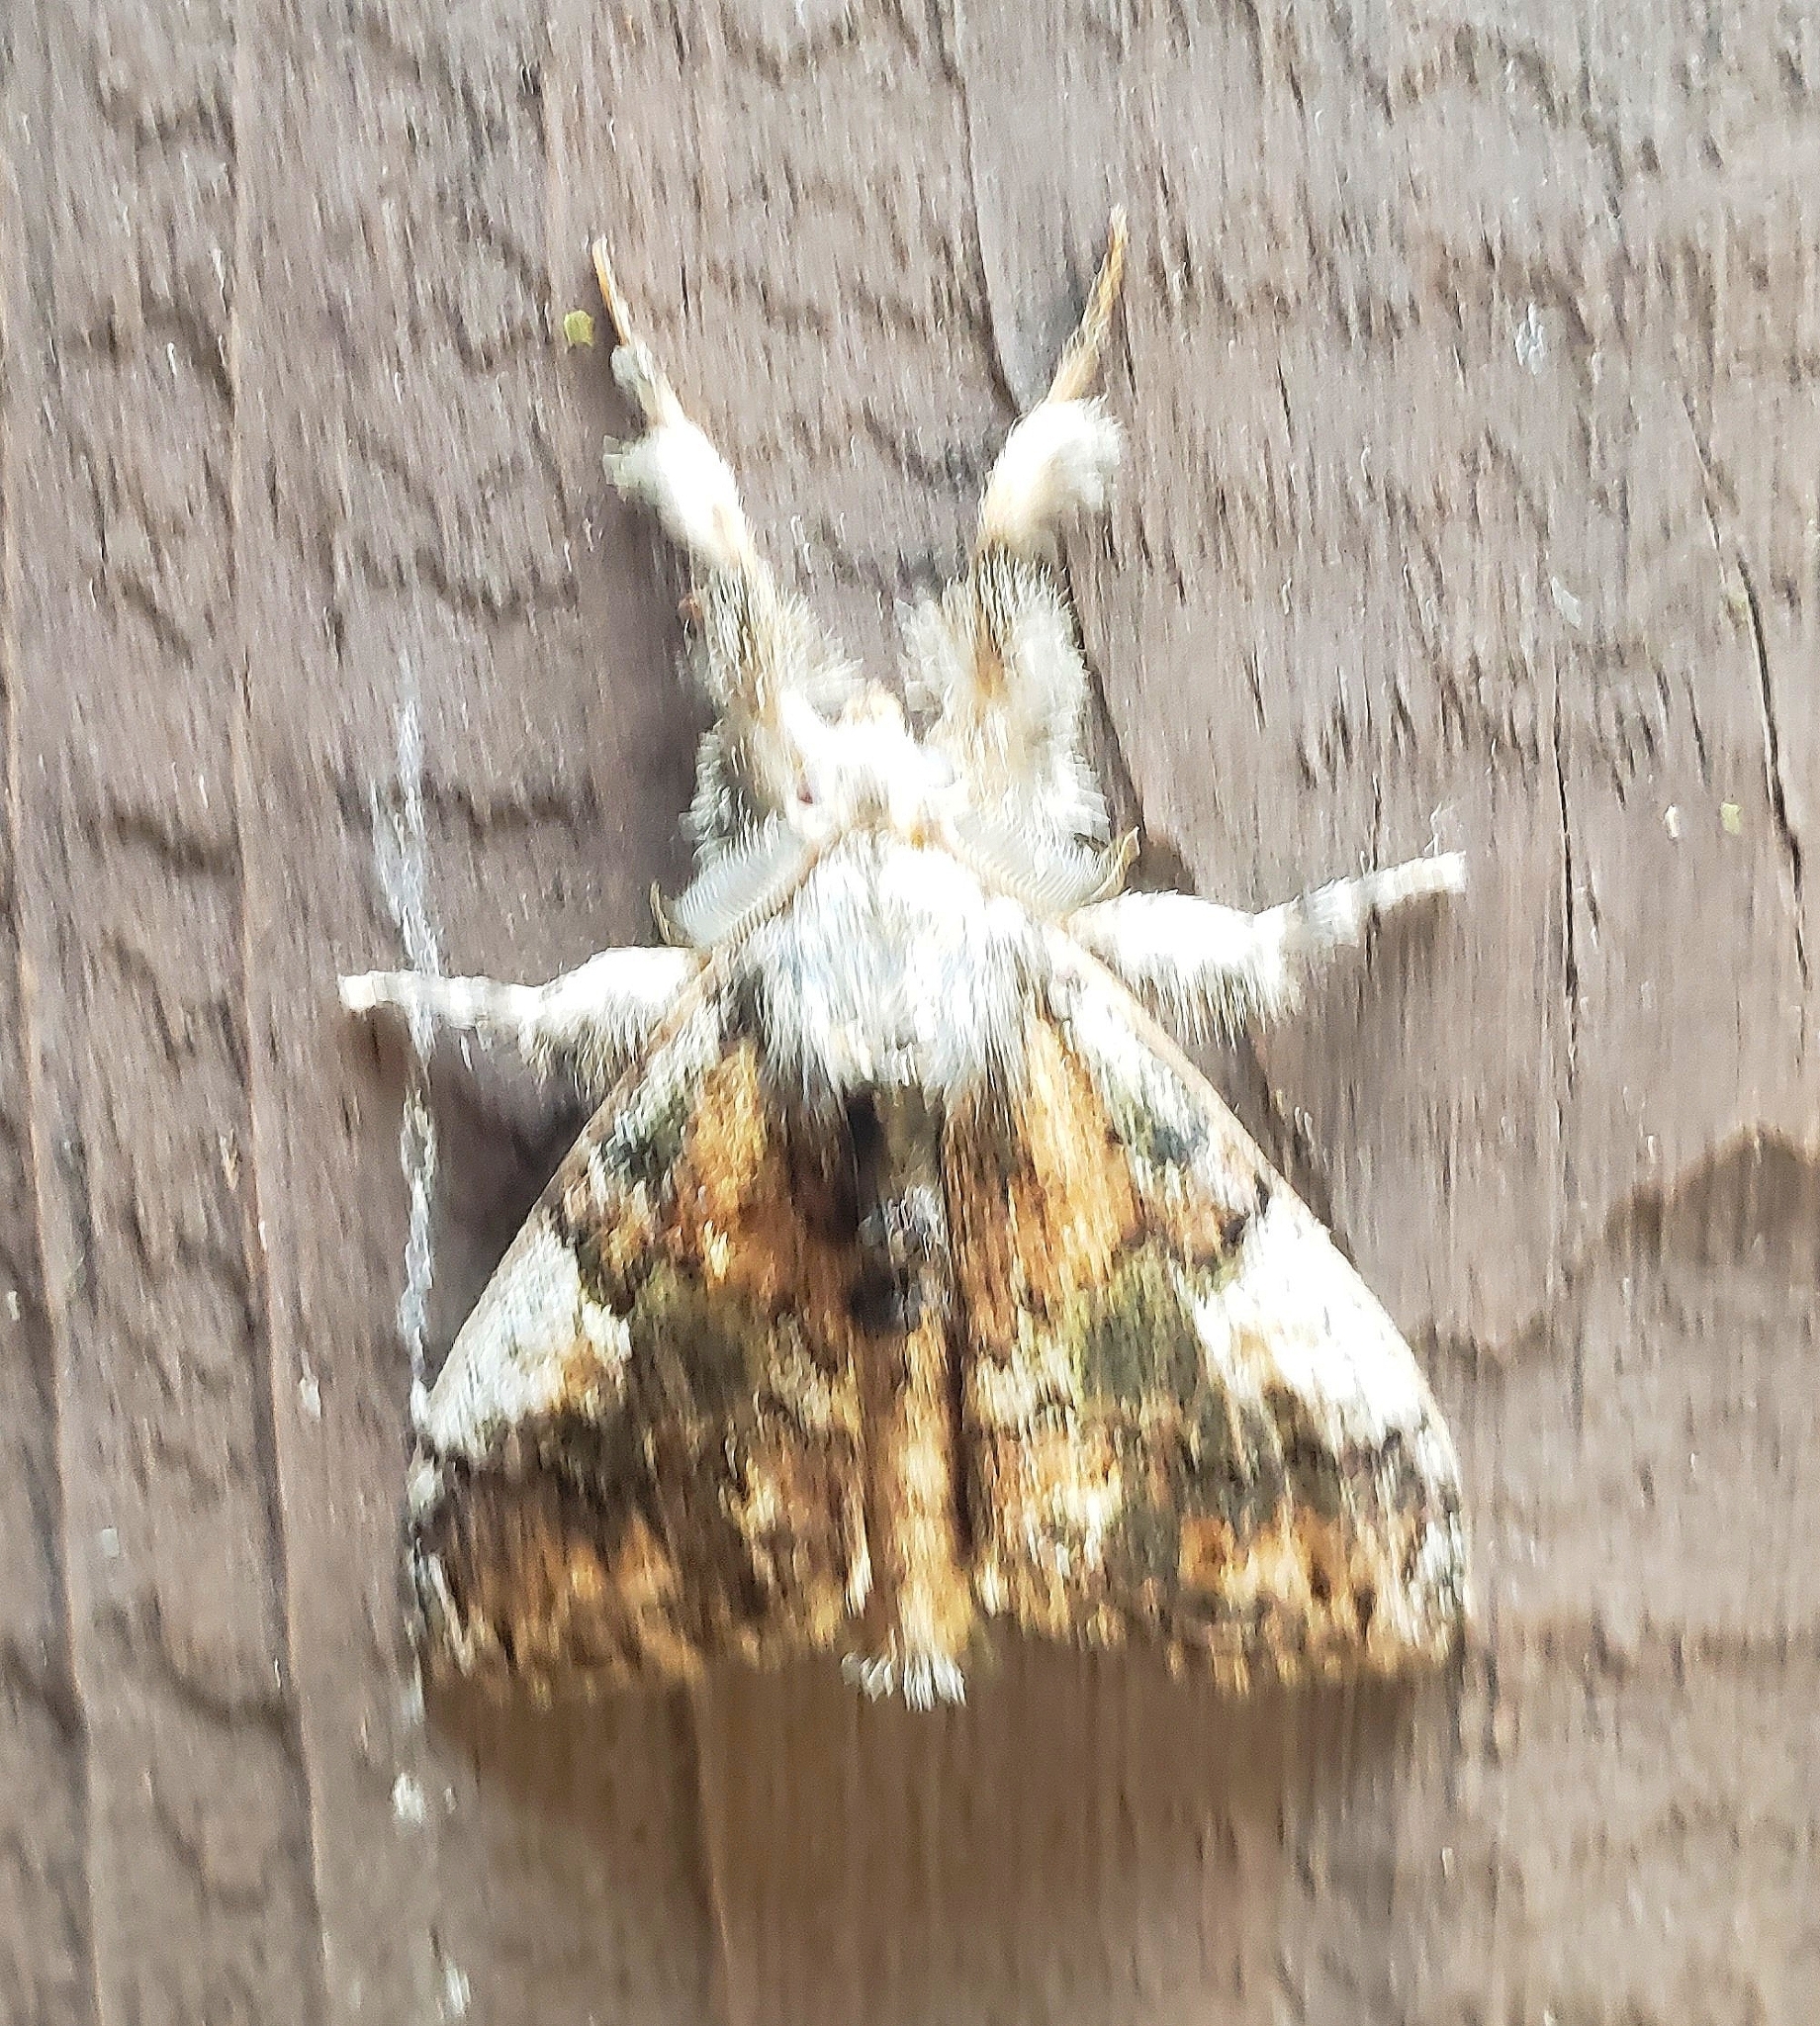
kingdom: Animalia
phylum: Arthropoda
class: Insecta
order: Lepidoptera
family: Erebidae
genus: Dasychira
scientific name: Dasychira basiflava
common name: Yellow-based tussock moth
